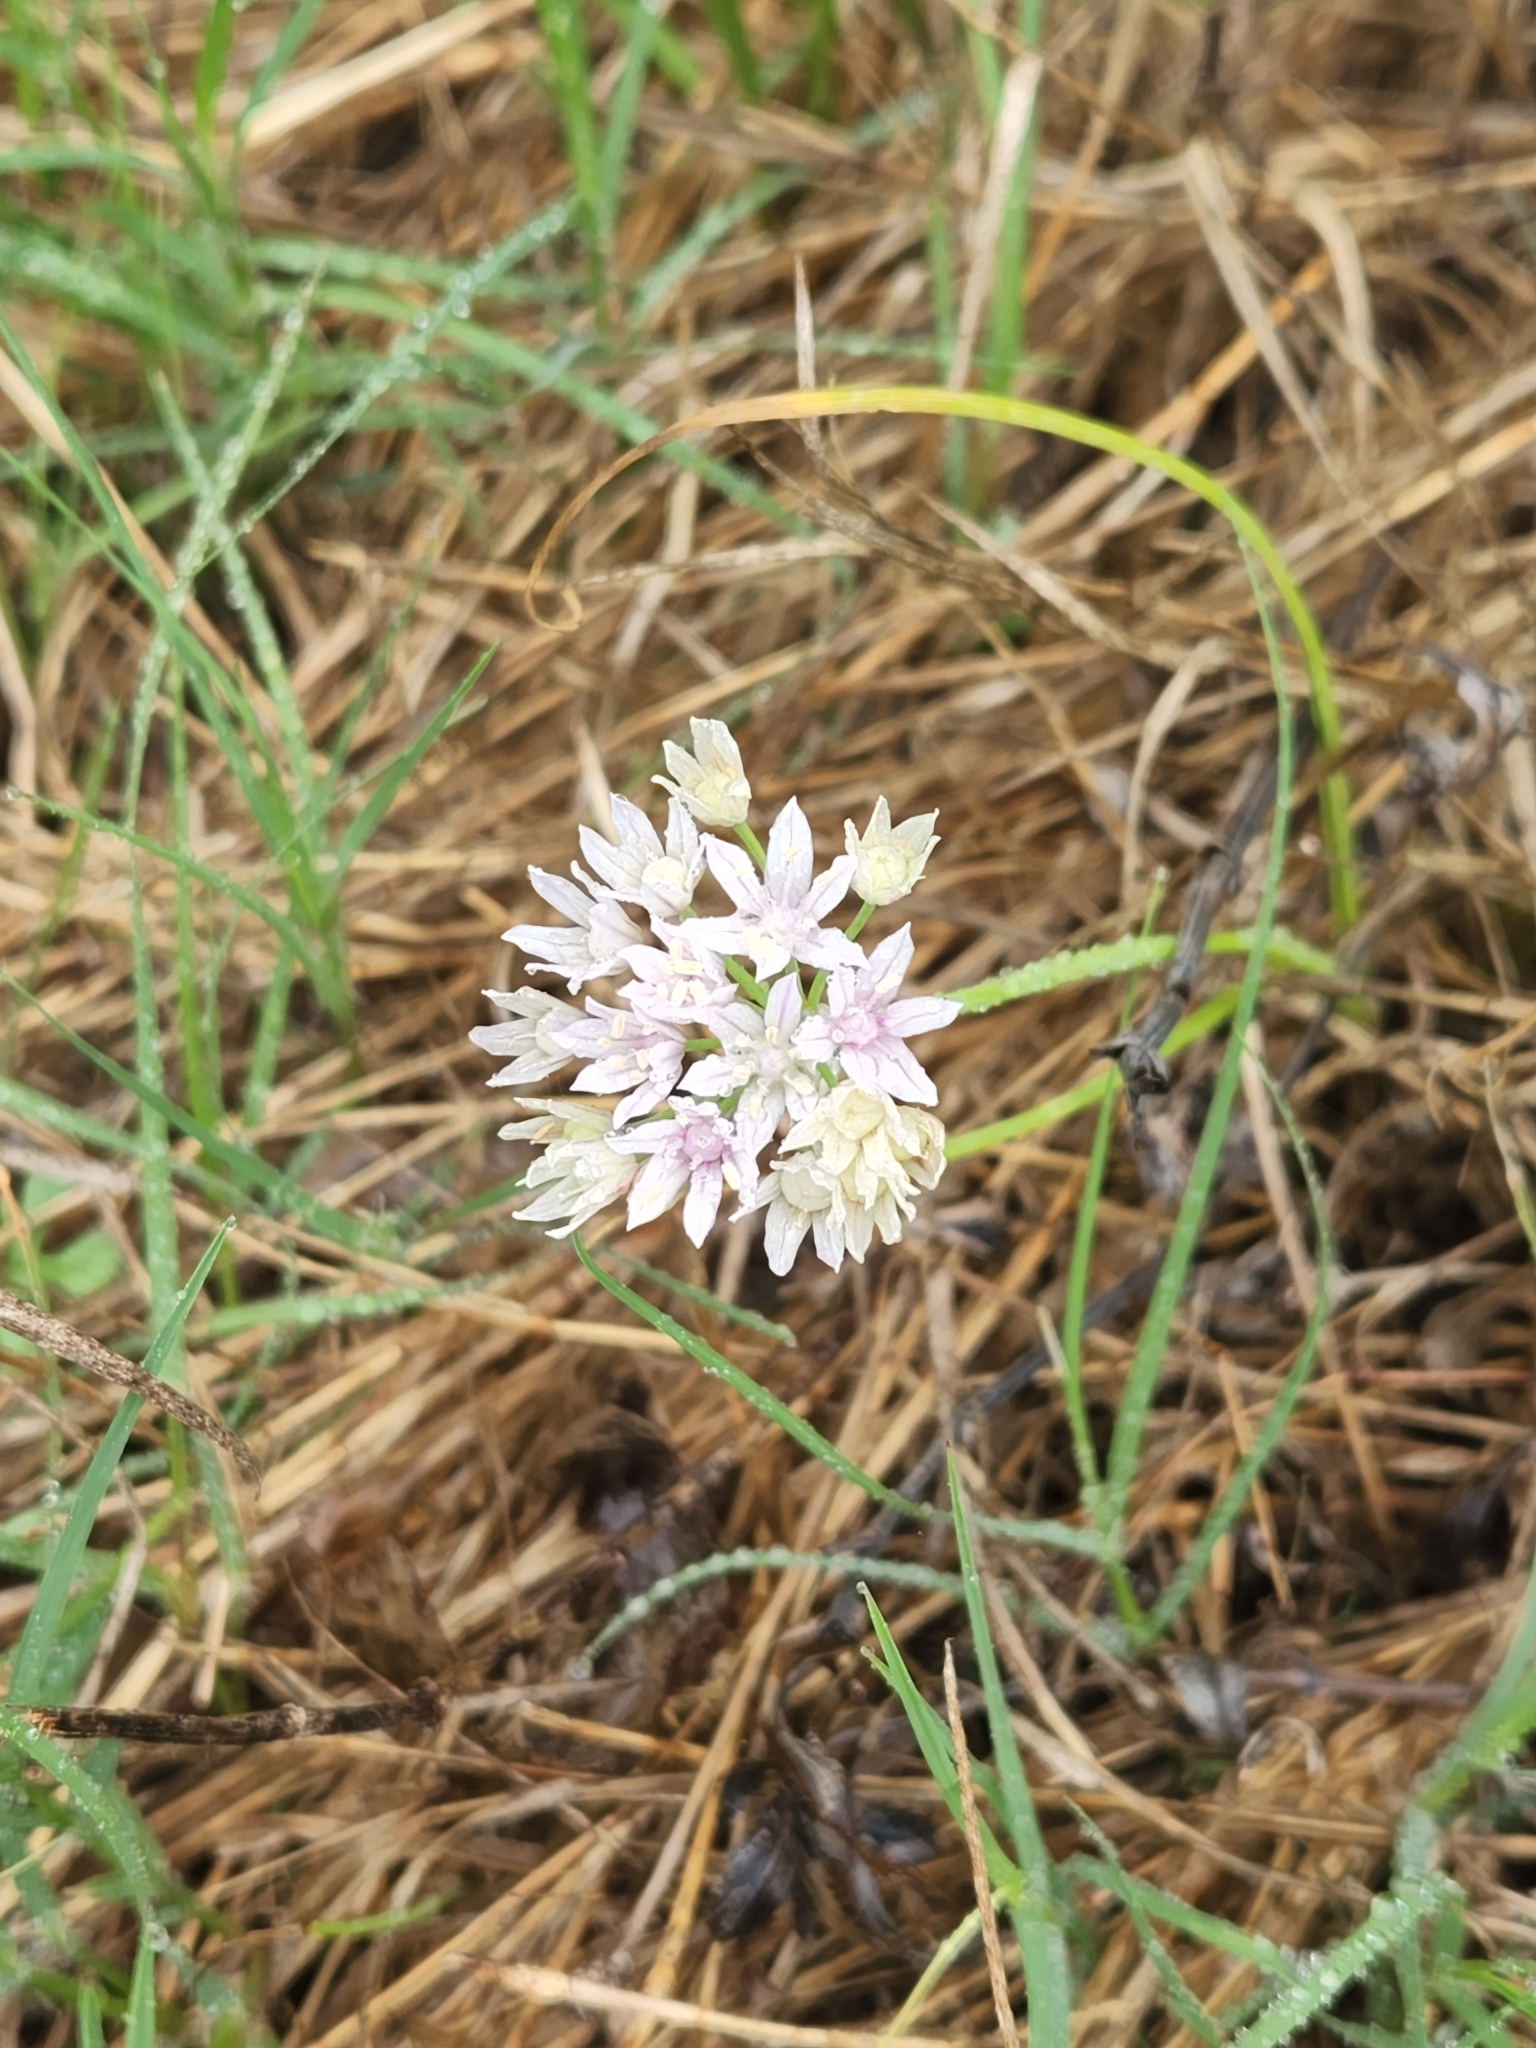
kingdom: Plantae
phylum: Tracheophyta
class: Liliopsida
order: Asparagales
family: Amaryllidaceae
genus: Allium
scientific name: Allium drummondii
